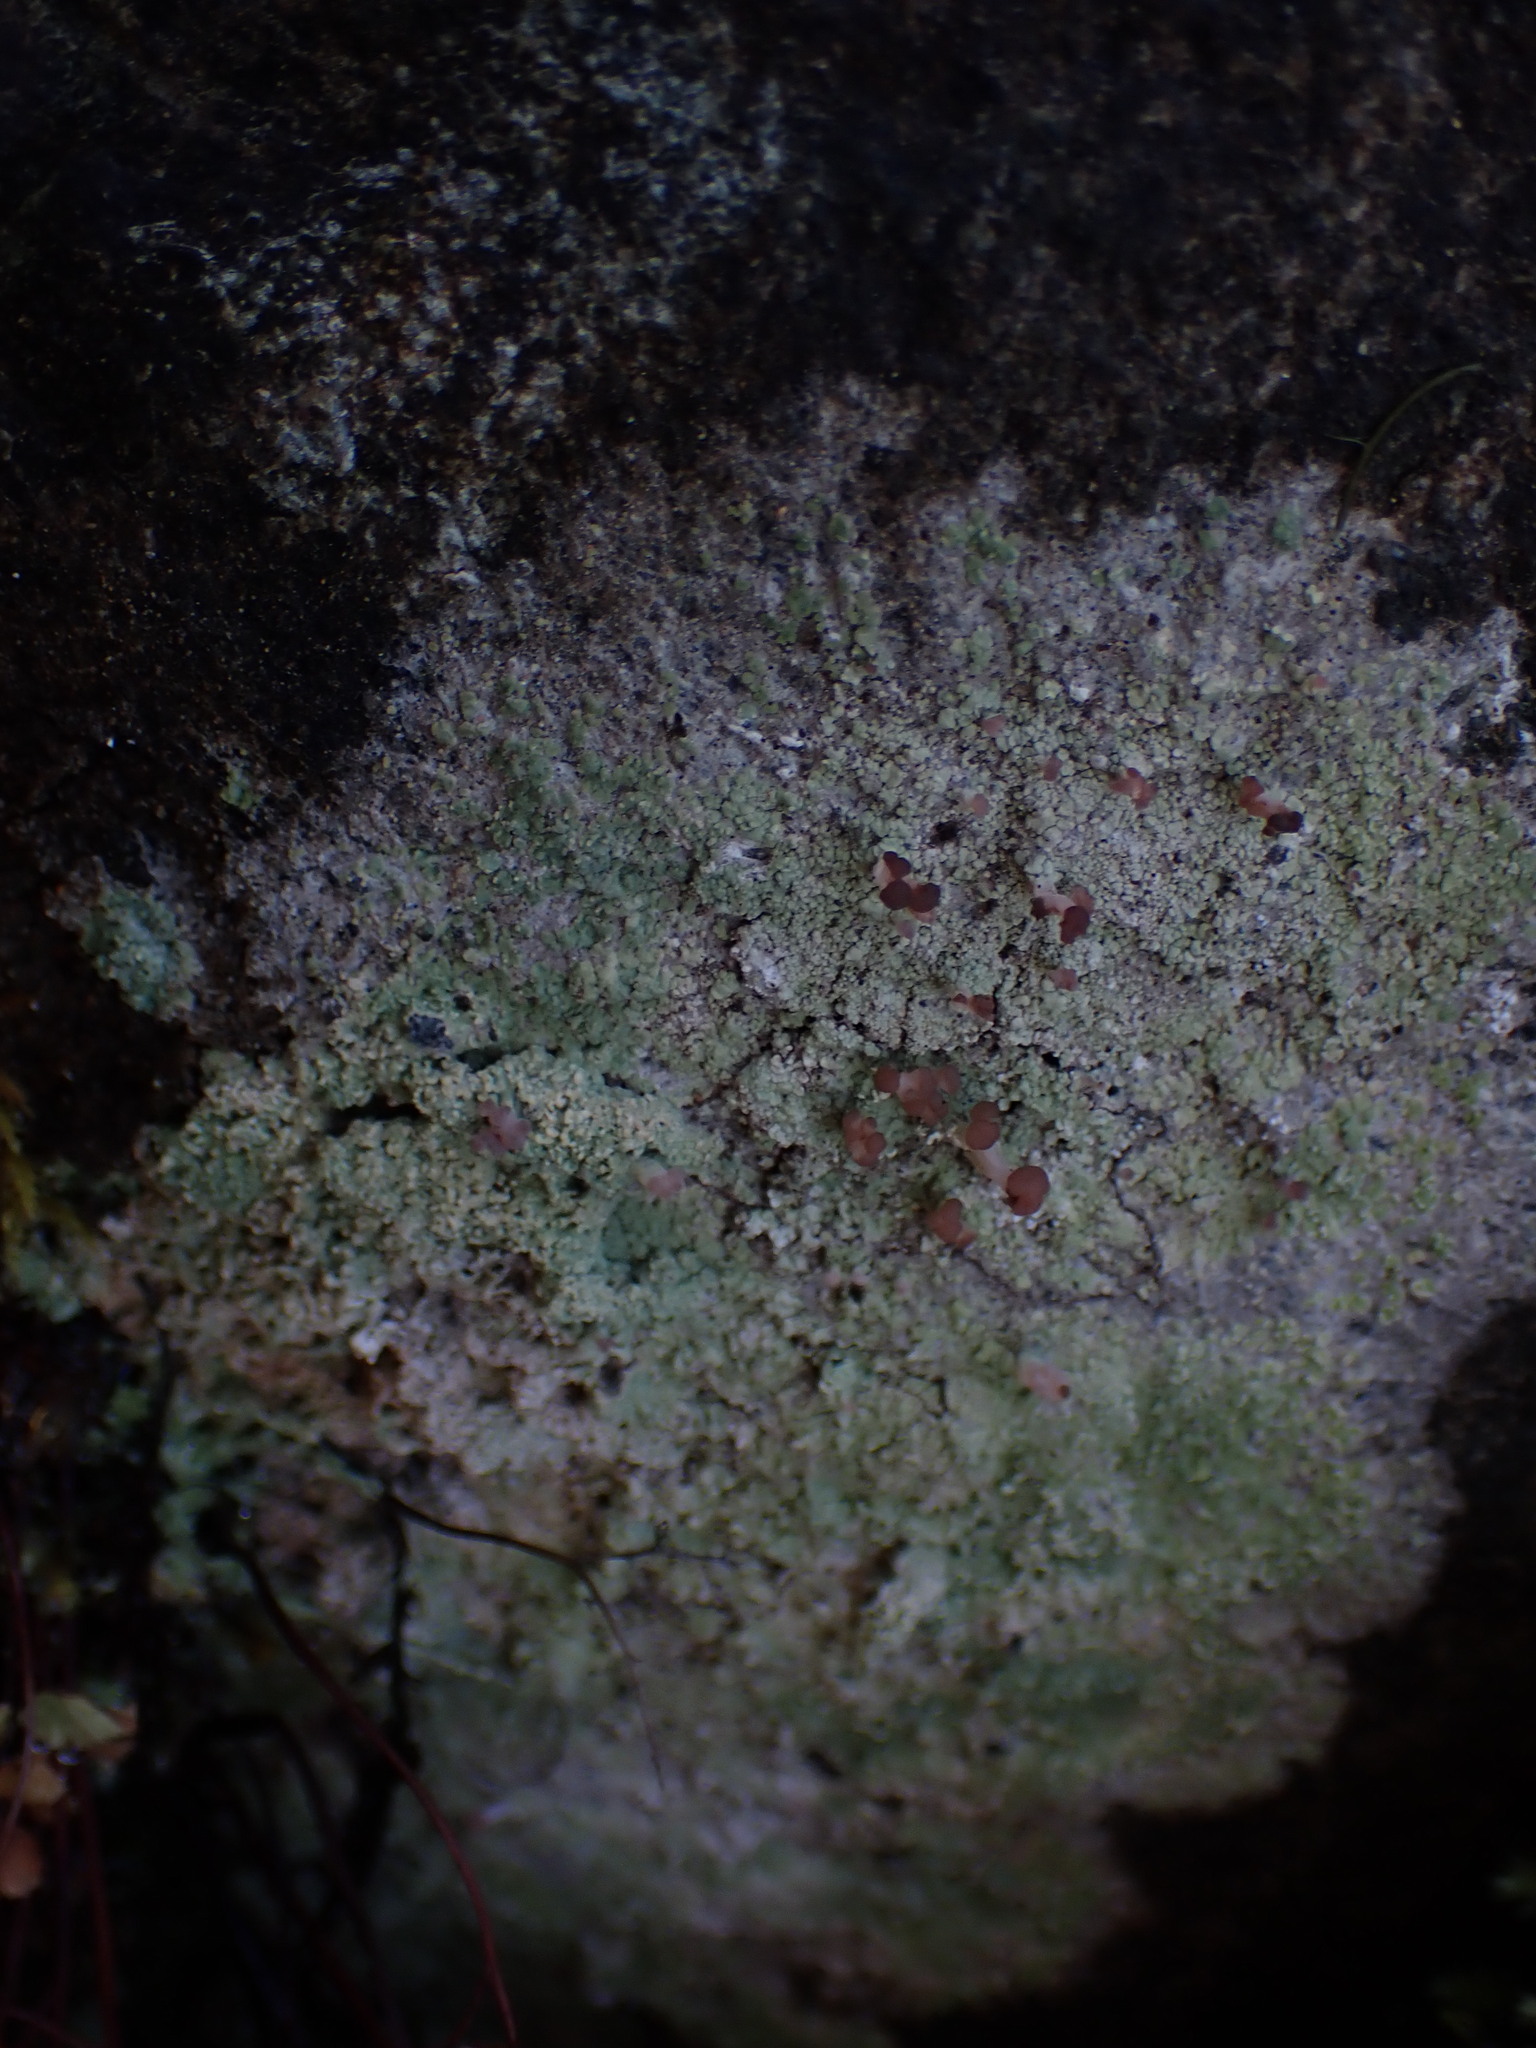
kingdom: Fungi
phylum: Ascomycota
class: Lecanoromycetes
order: Baeomycetales
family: Baeomycetaceae
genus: Baeomyces
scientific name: Baeomyces rufus
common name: Brown beret lichen
